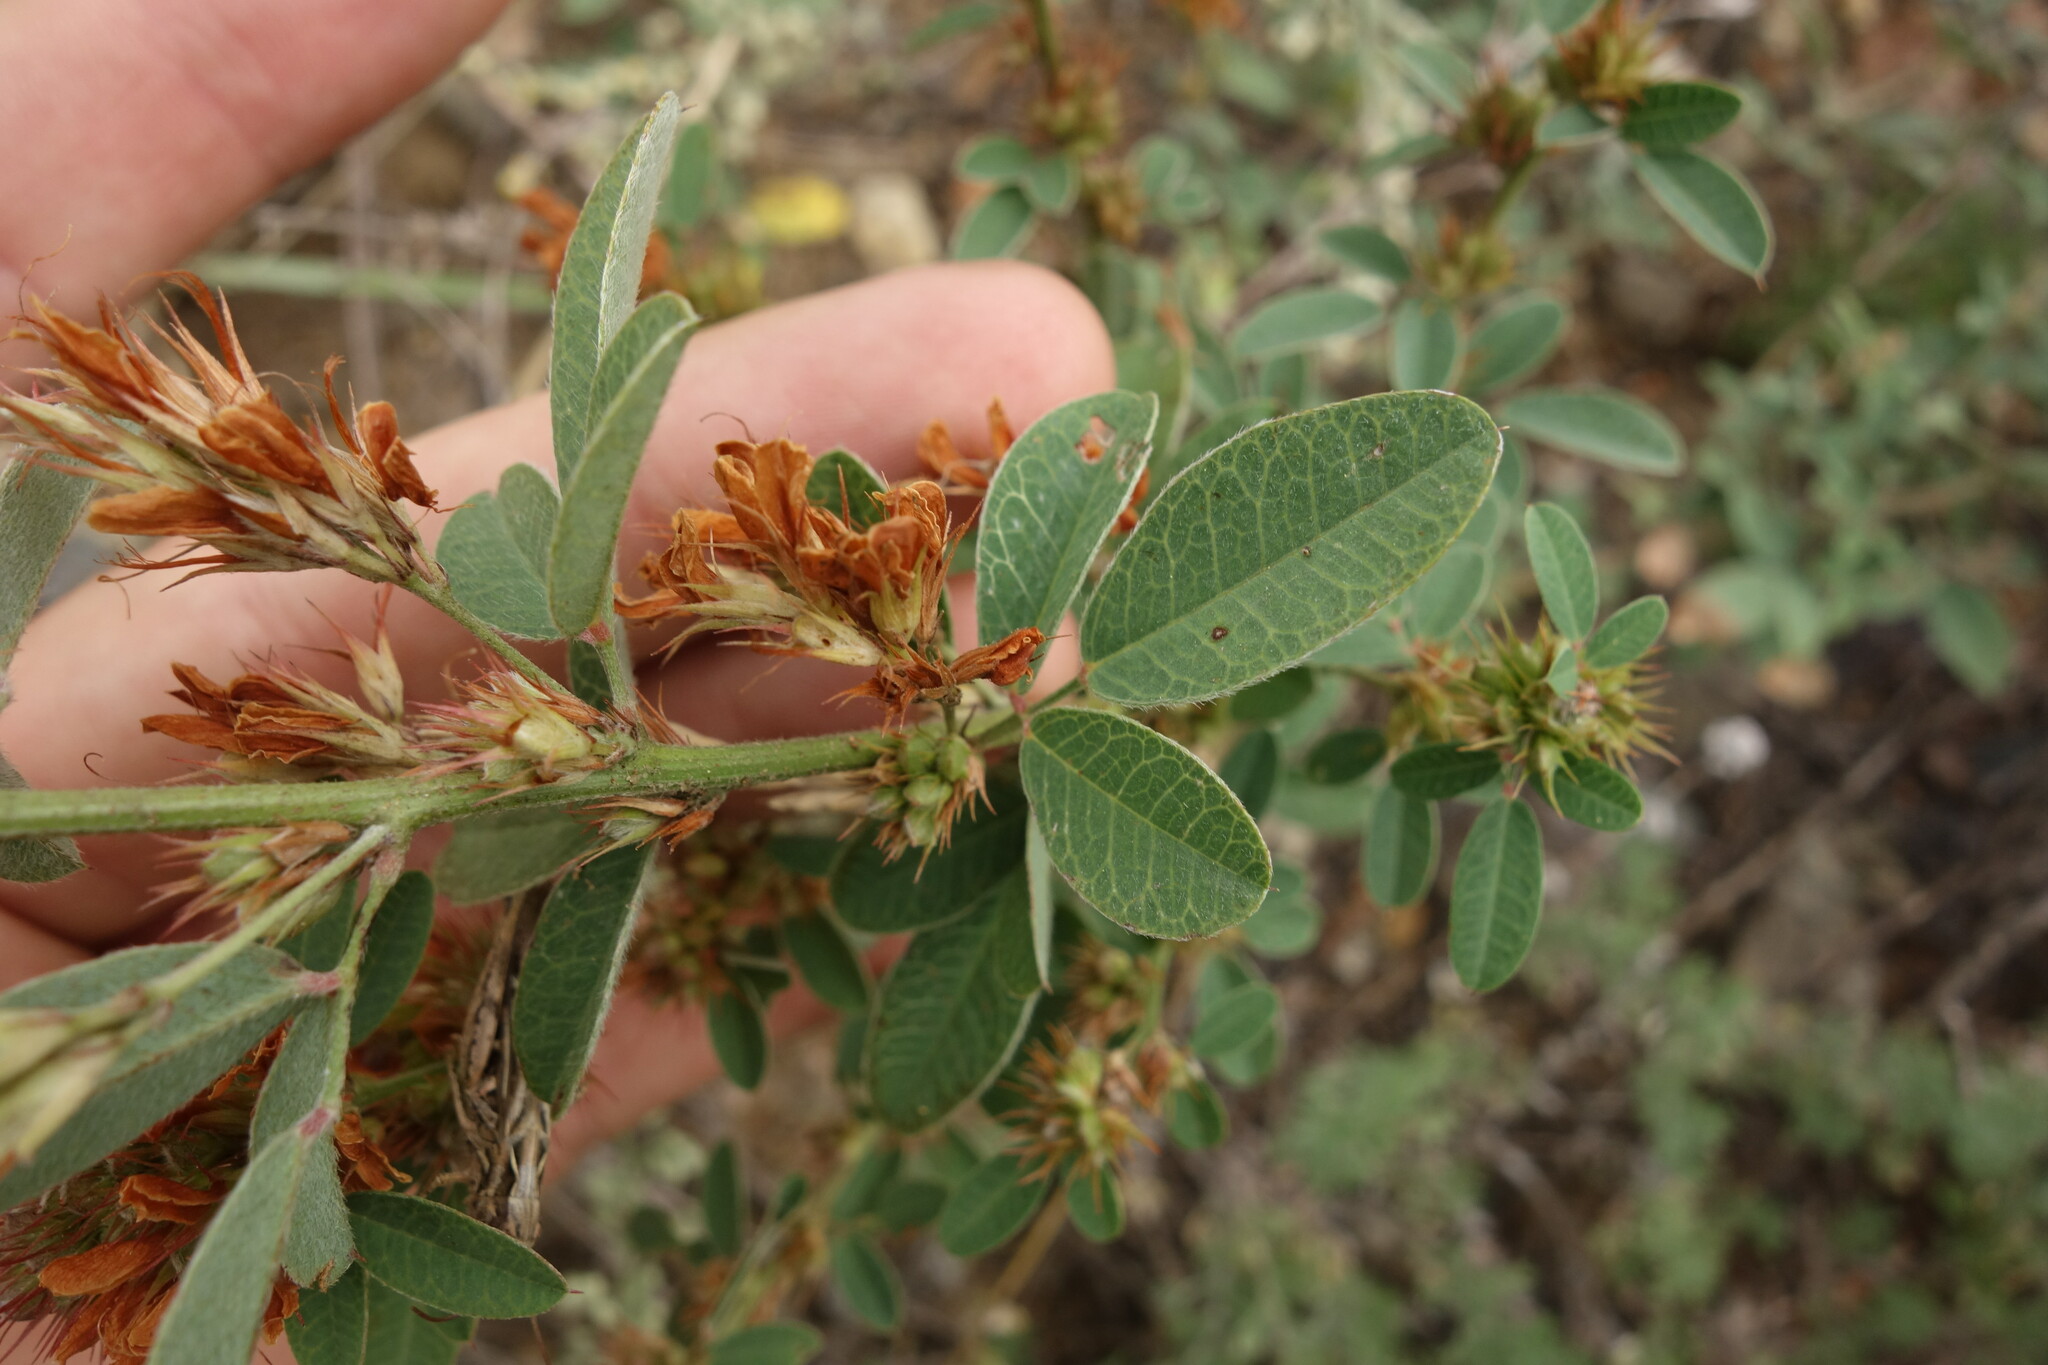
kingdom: Plantae
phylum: Tracheophyta
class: Magnoliopsida
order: Fabales
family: Fabaceae
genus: Lespedeza
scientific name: Lespedeza daurica
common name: Dahurian lespedeza
